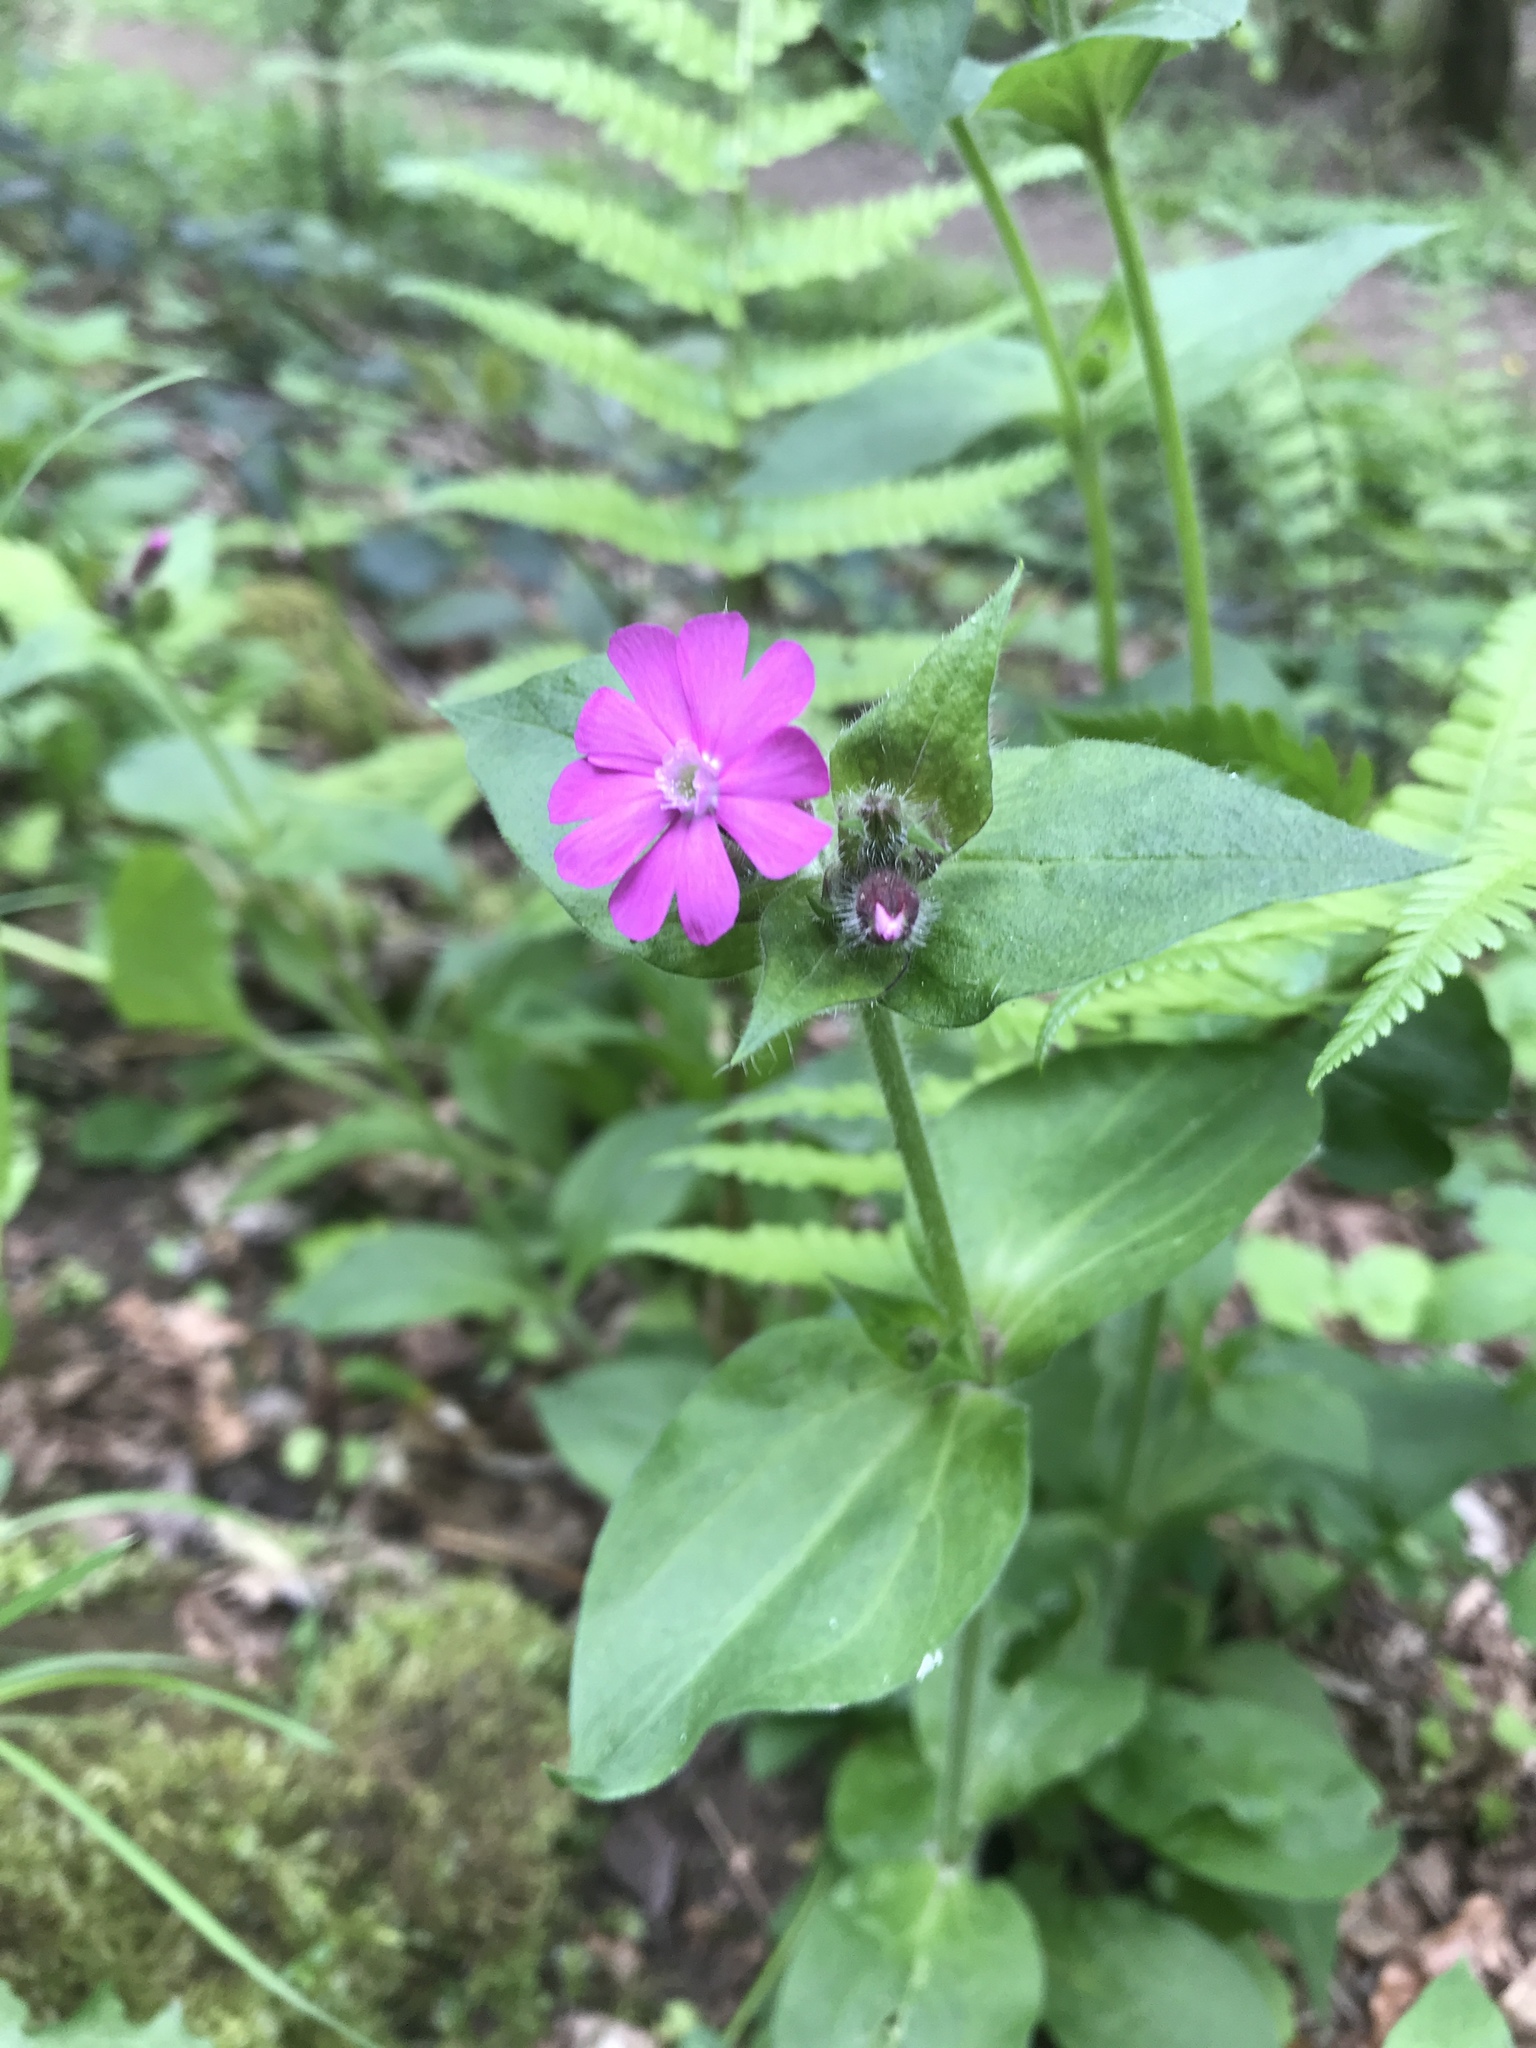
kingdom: Plantae
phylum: Tracheophyta
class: Magnoliopsida
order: Caryophyllales
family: Caryophyllaceae
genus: Silene
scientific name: Silene dioica
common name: Red campion
